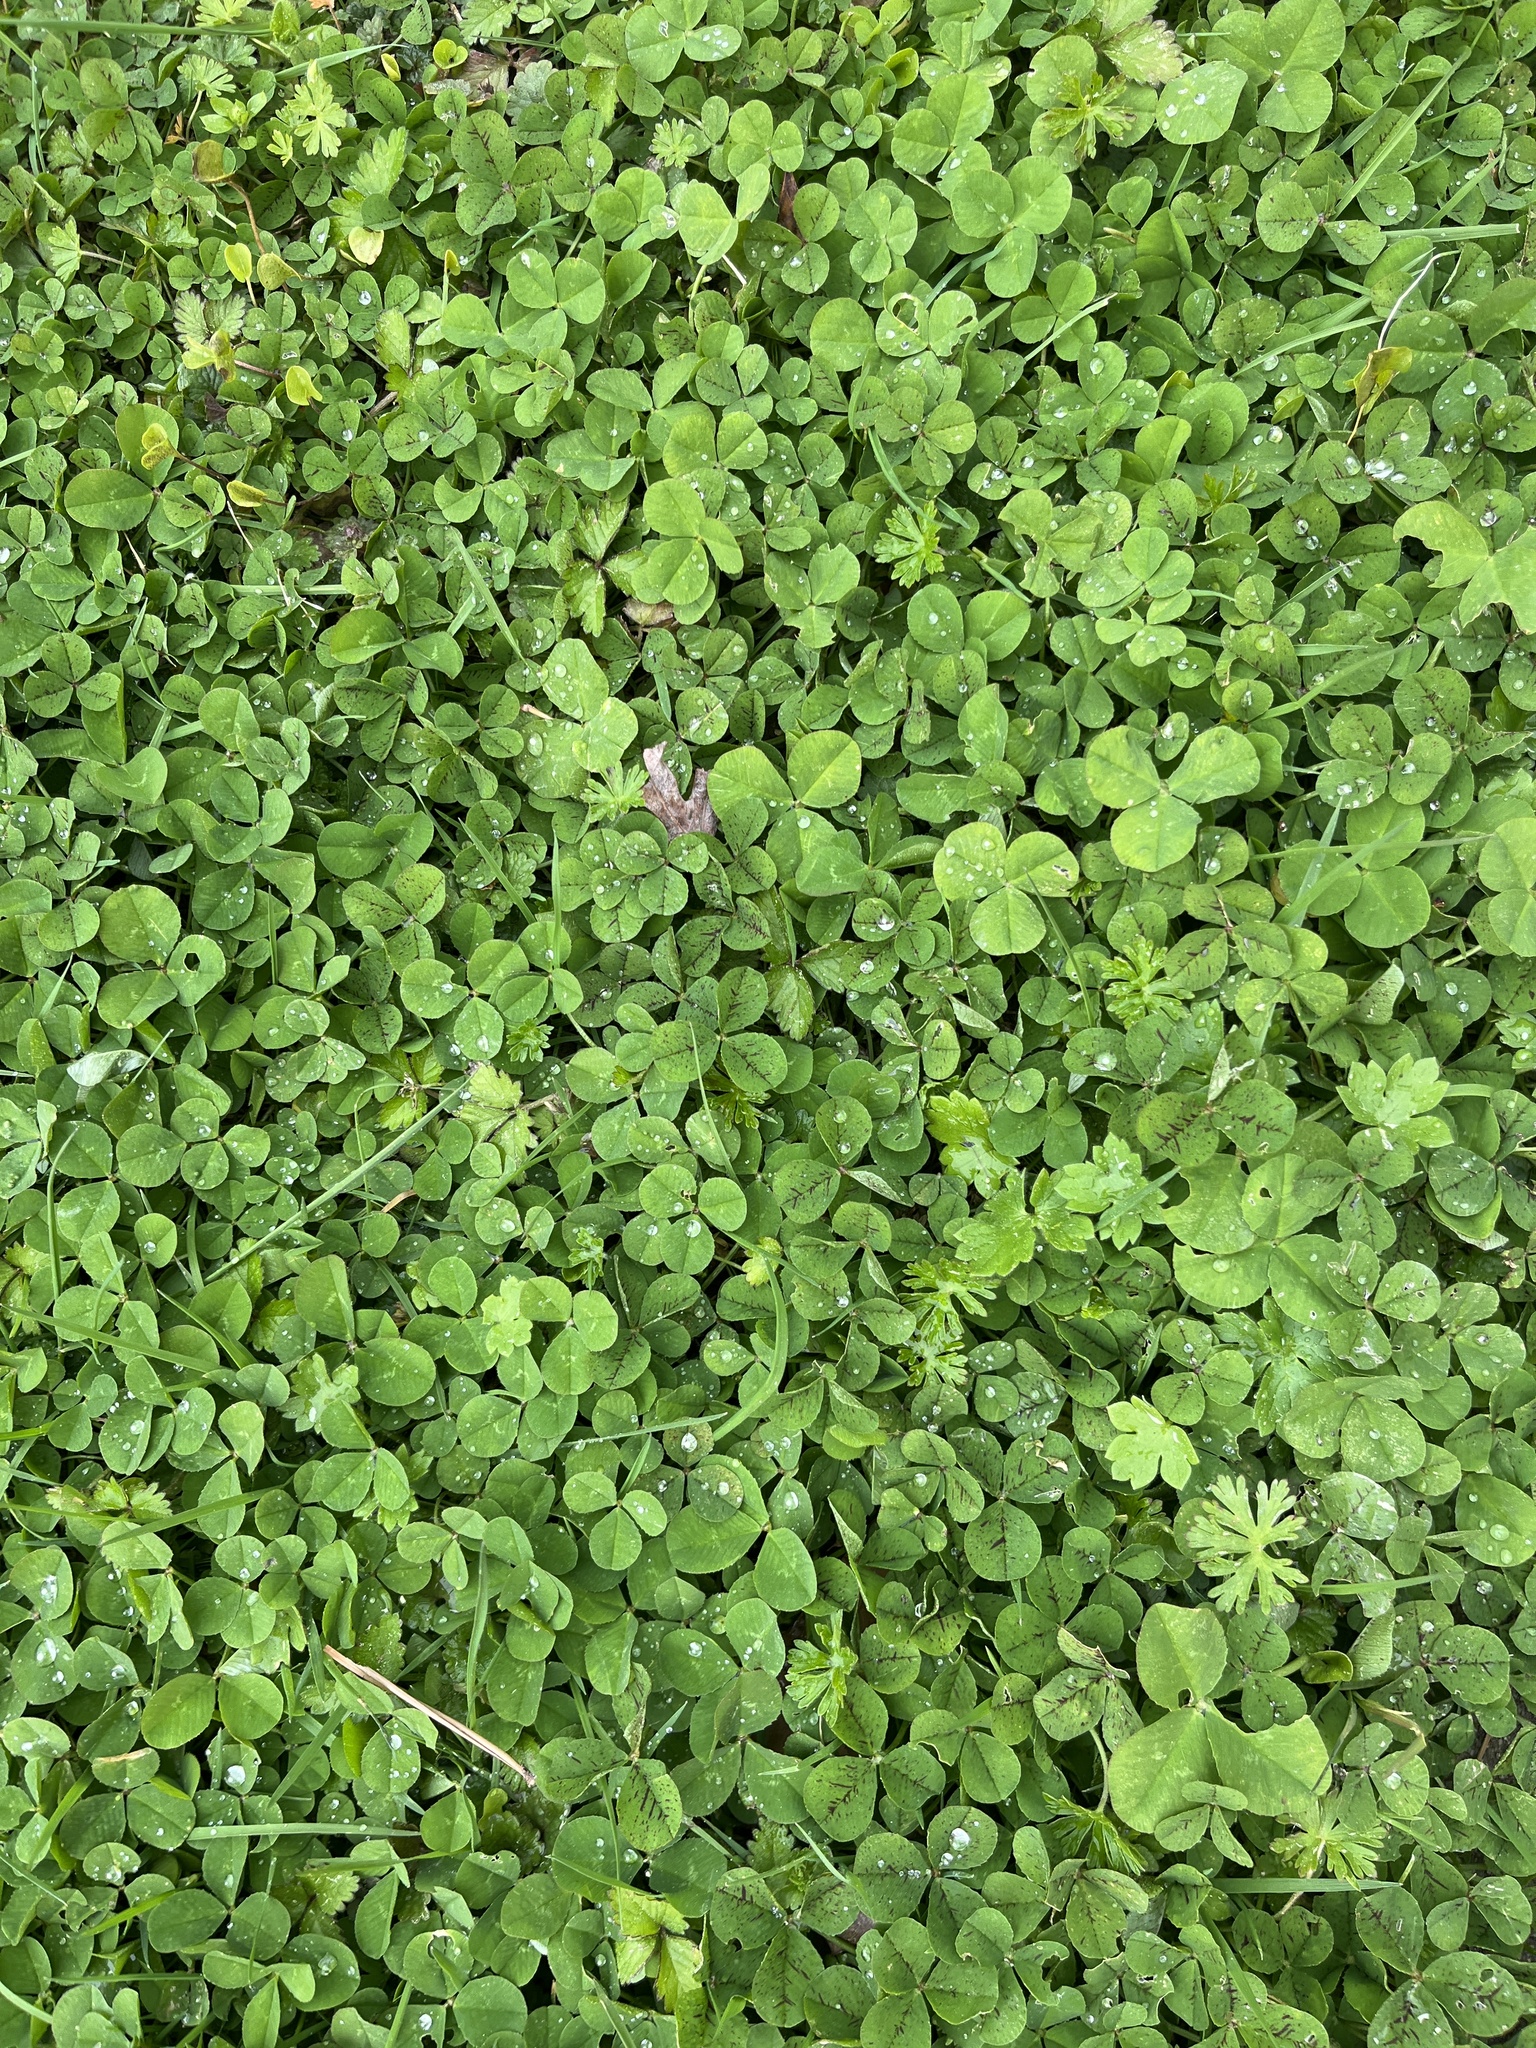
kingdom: Plantae
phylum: Tracheophyta
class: Magnoliopsida
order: Fabales
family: Fabaceae
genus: Trifolium
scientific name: Trifolium repens
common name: White clover
